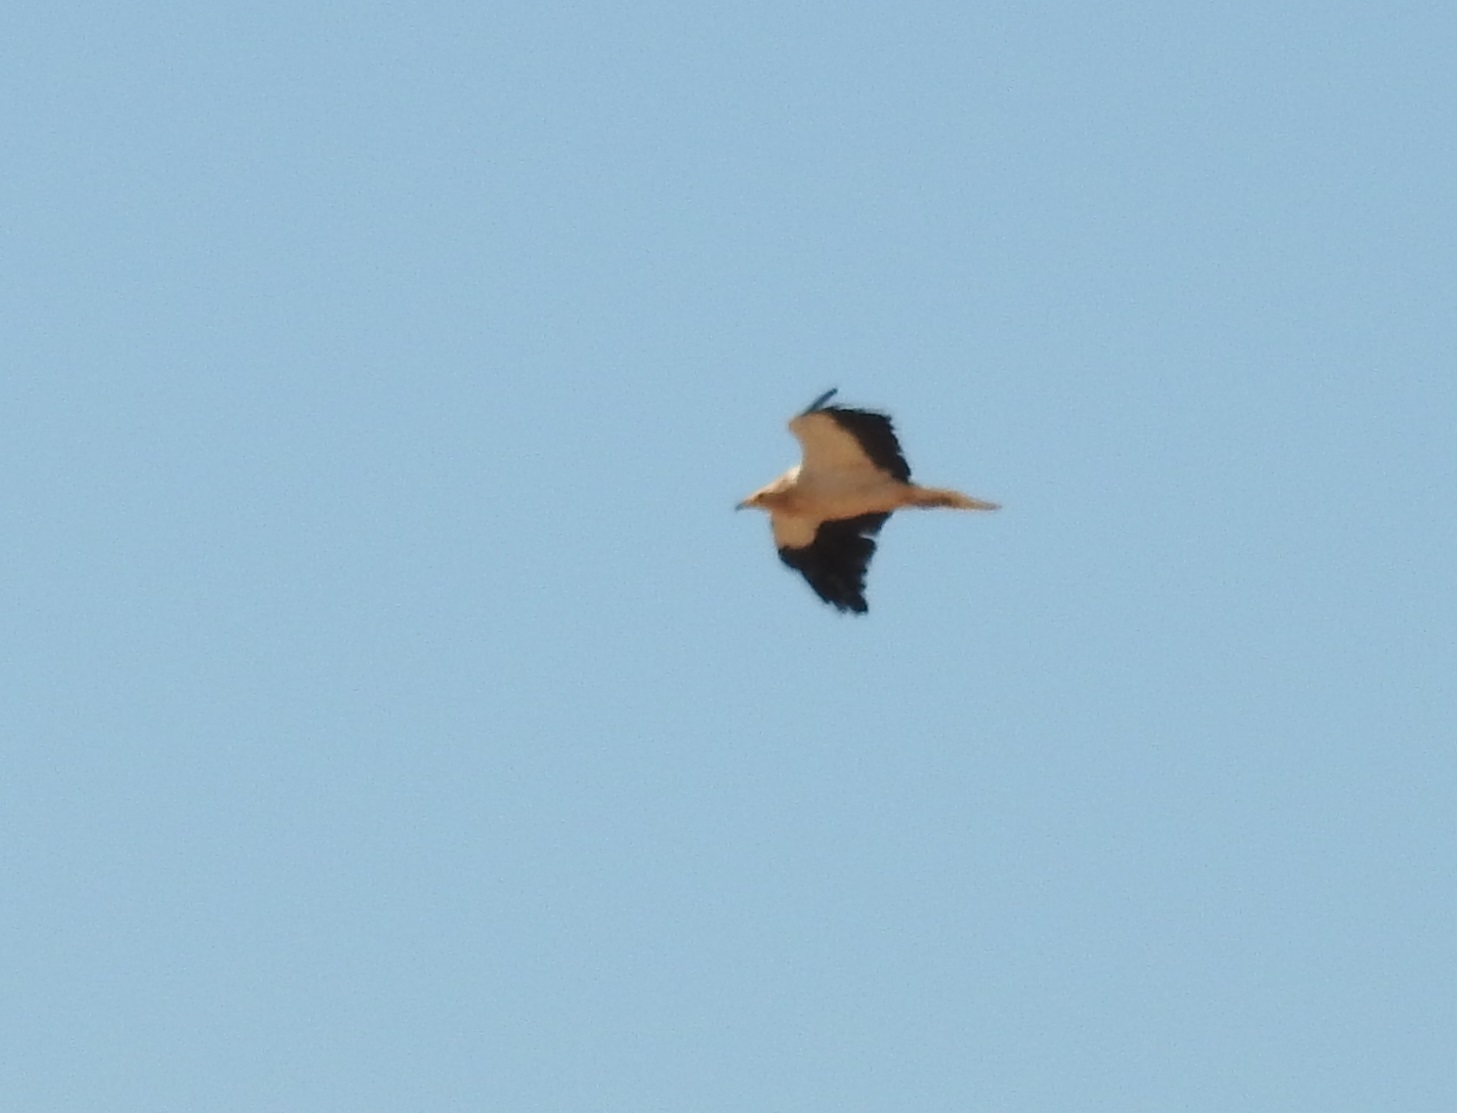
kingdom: Animalia
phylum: Chordata
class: Aves
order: Accipitriformes
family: Accipitridae
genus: Neophron
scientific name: Neophron percnopterus
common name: Egyptian vulture
